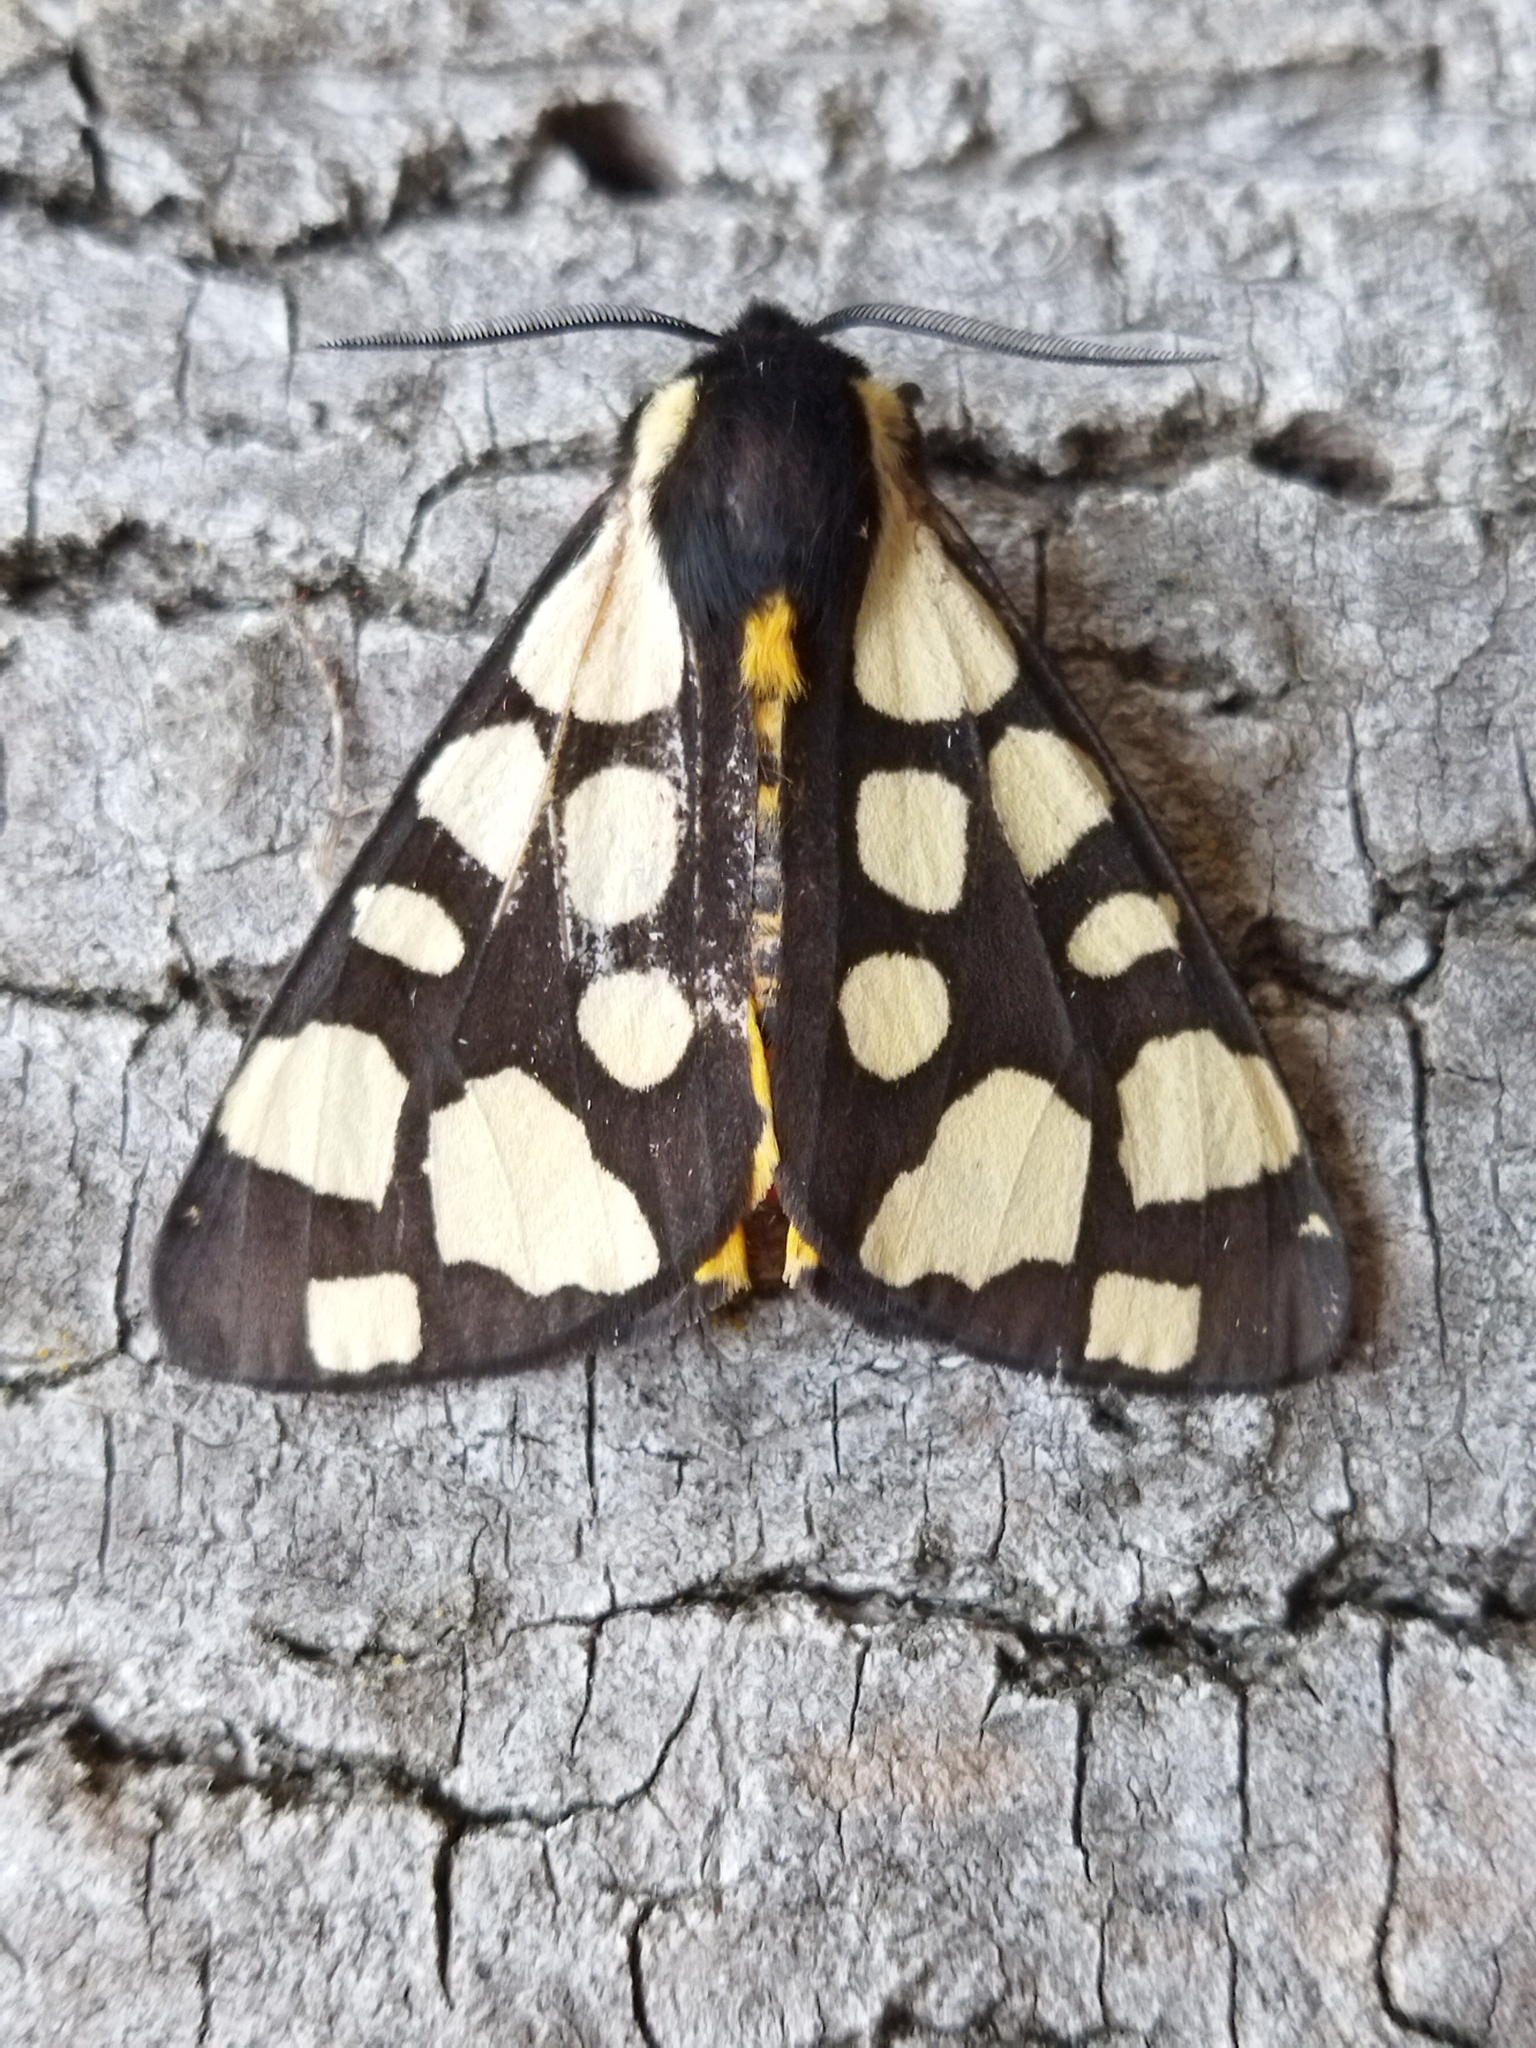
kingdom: Animalia
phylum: Arthropoda
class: Insecta
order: Lepidoptera
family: Erebidae
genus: Epicallia
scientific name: Epicallia villica
